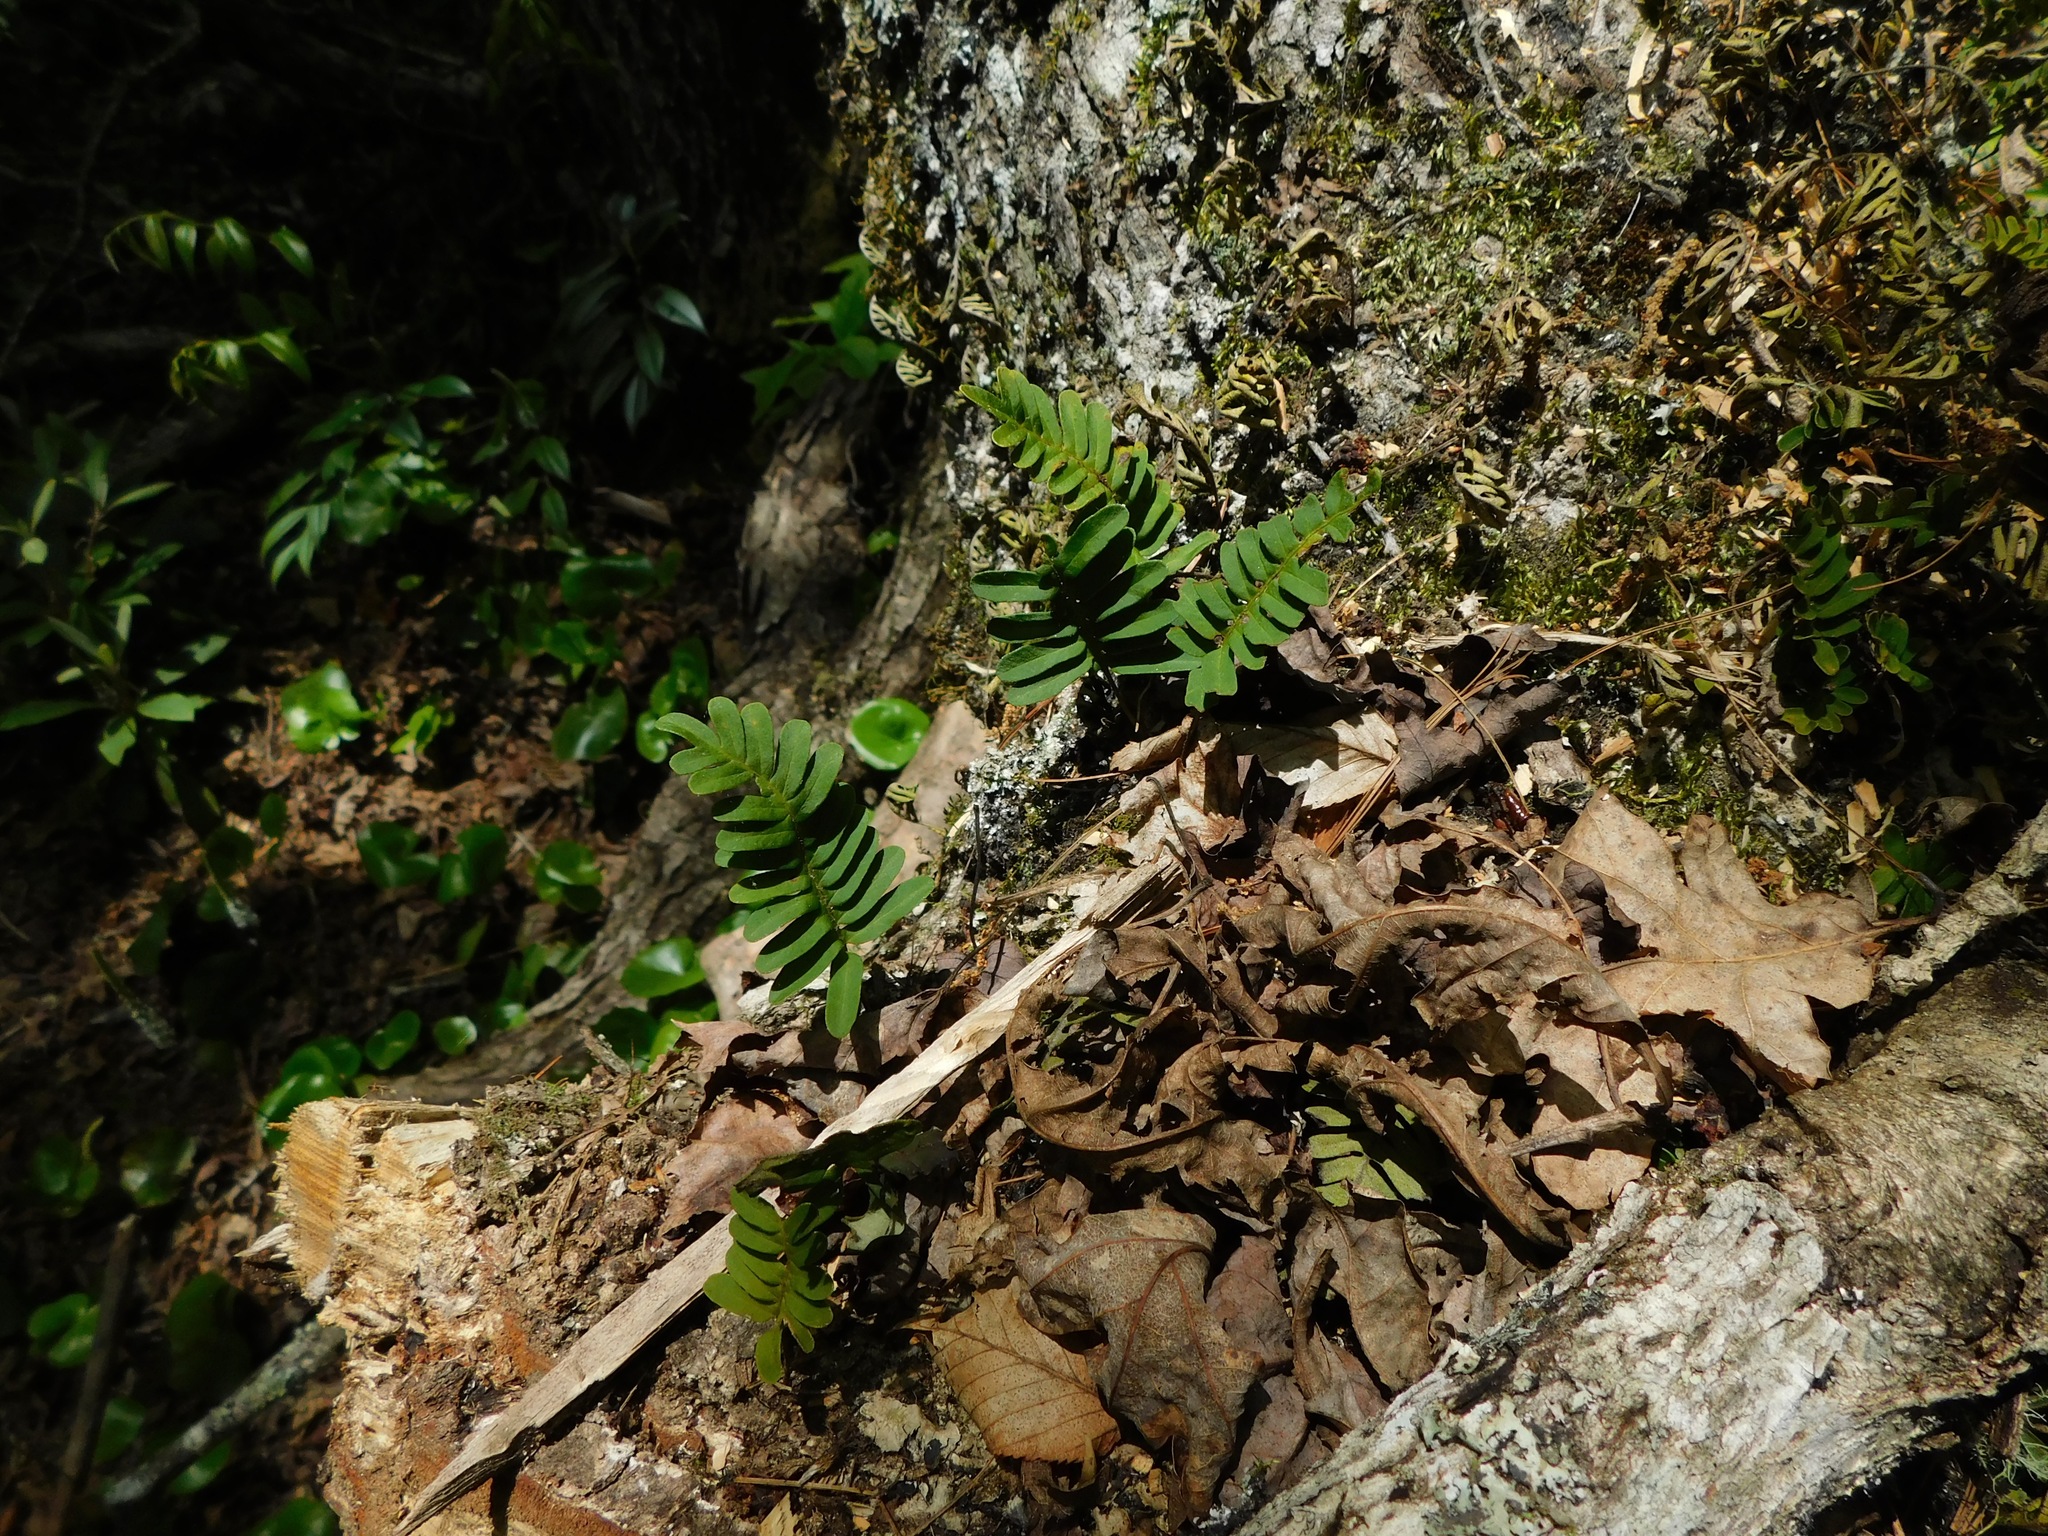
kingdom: Plantae
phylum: Tracheophyta
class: Polypodiopsida
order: Polypodiales
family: Polypodiaceae
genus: Pleopeltis
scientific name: Pleopeltis michauxiana
